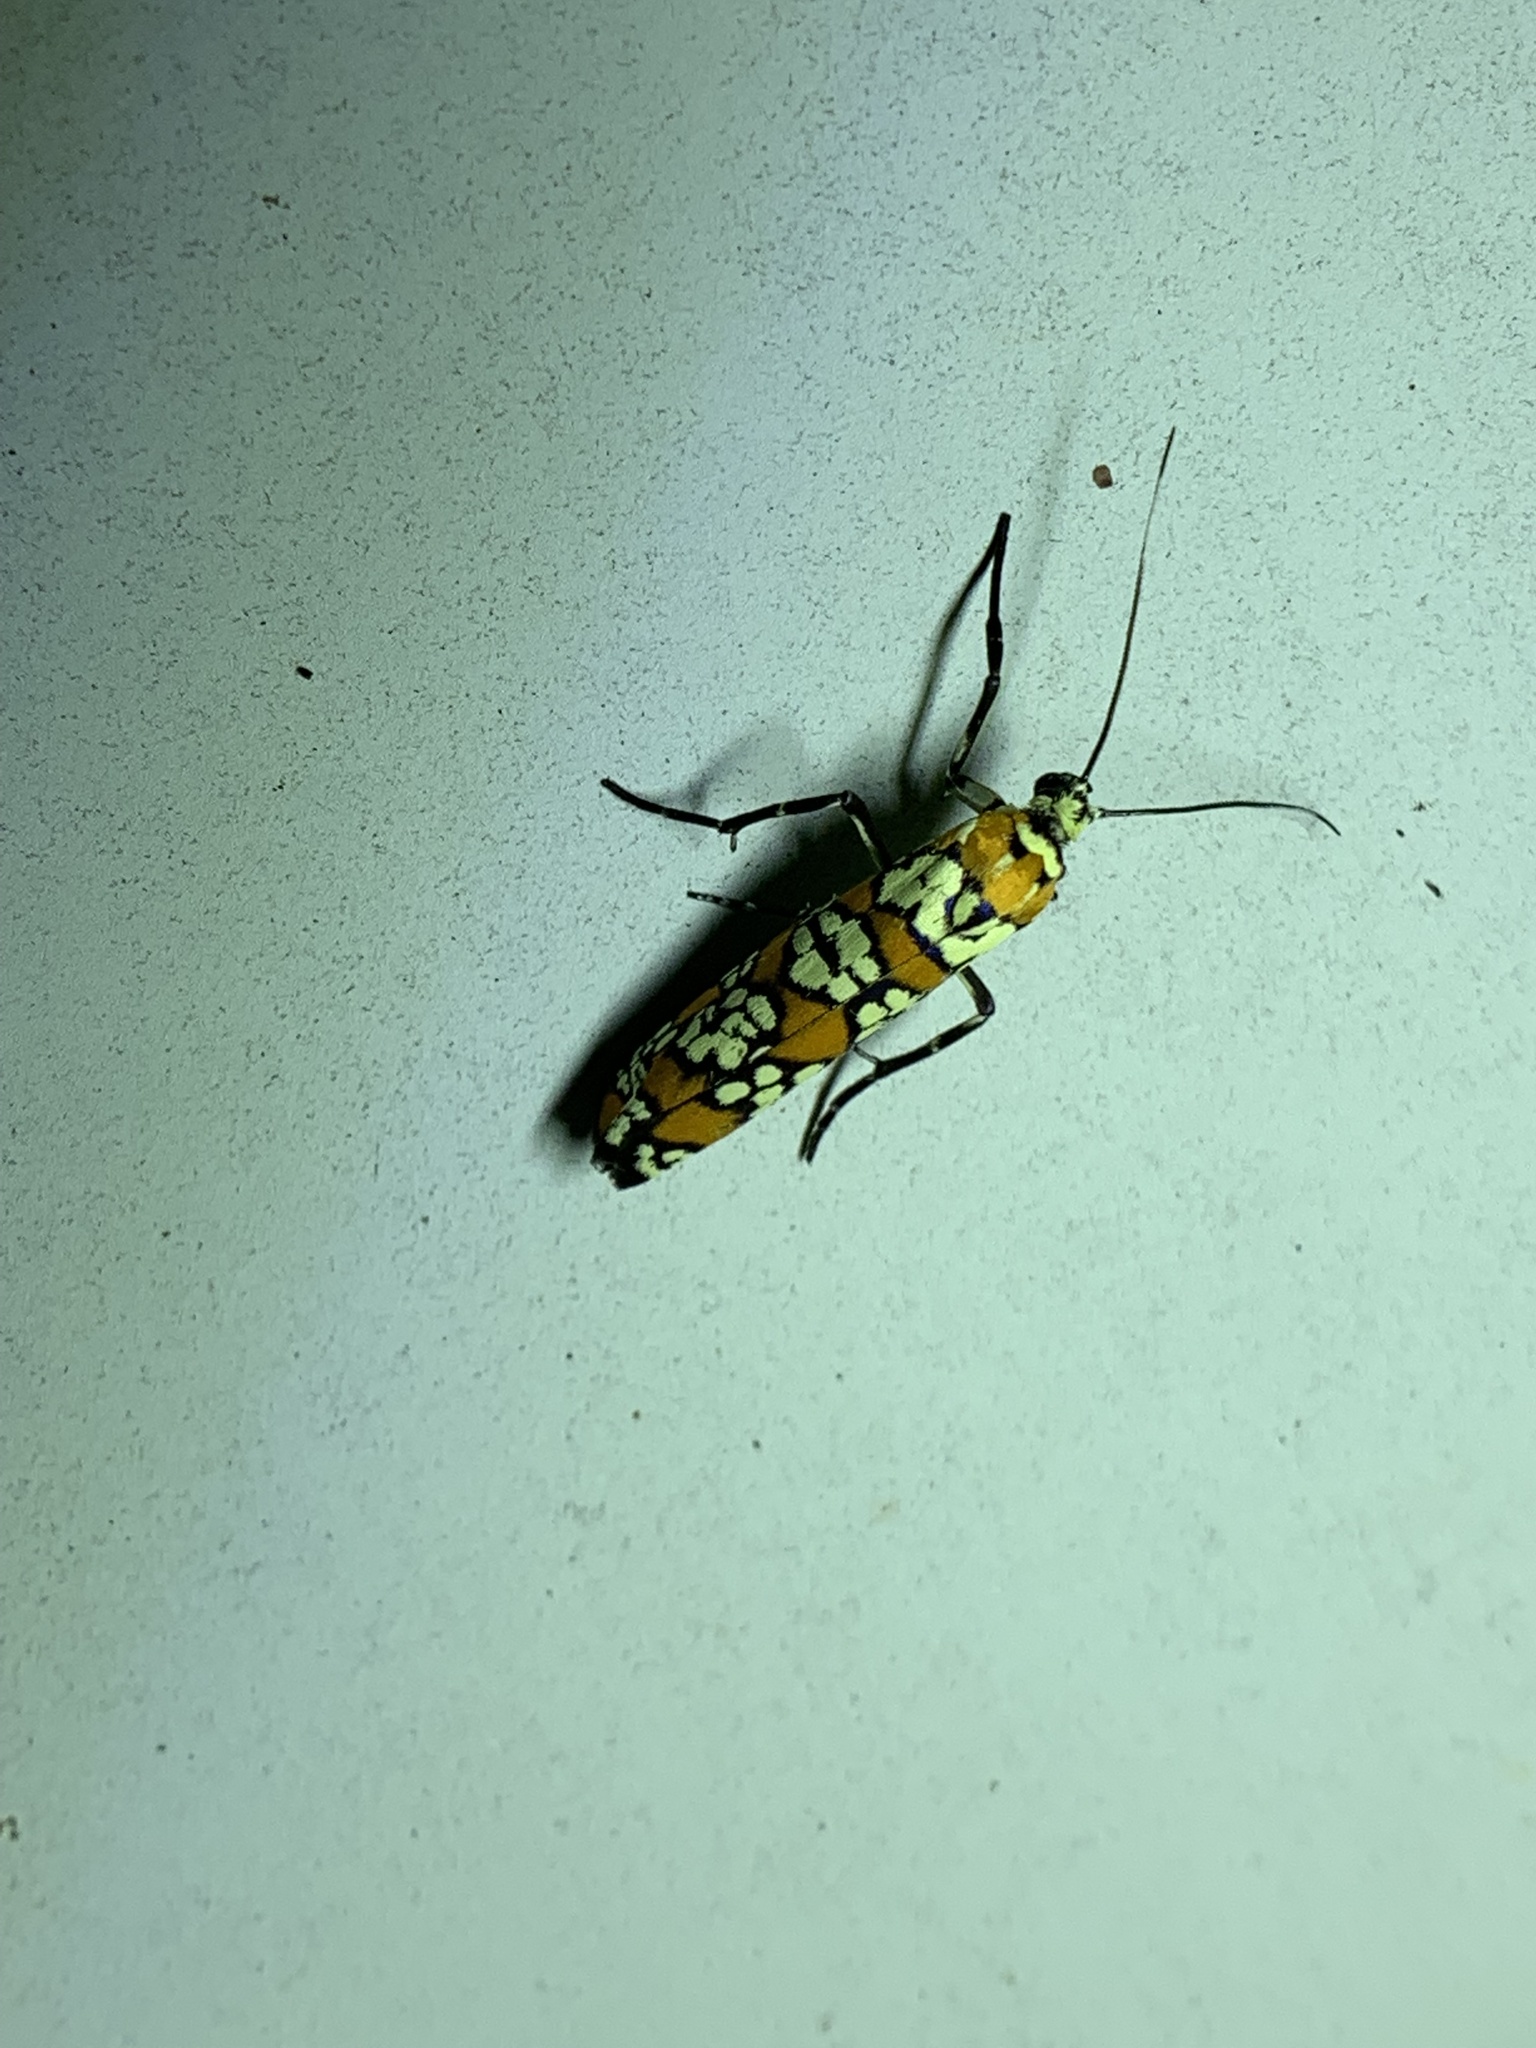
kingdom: Animalia
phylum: Arthropoda
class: Insecta
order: Lepidoptera
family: Attevidae
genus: Atteva
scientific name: Atteva punctella
